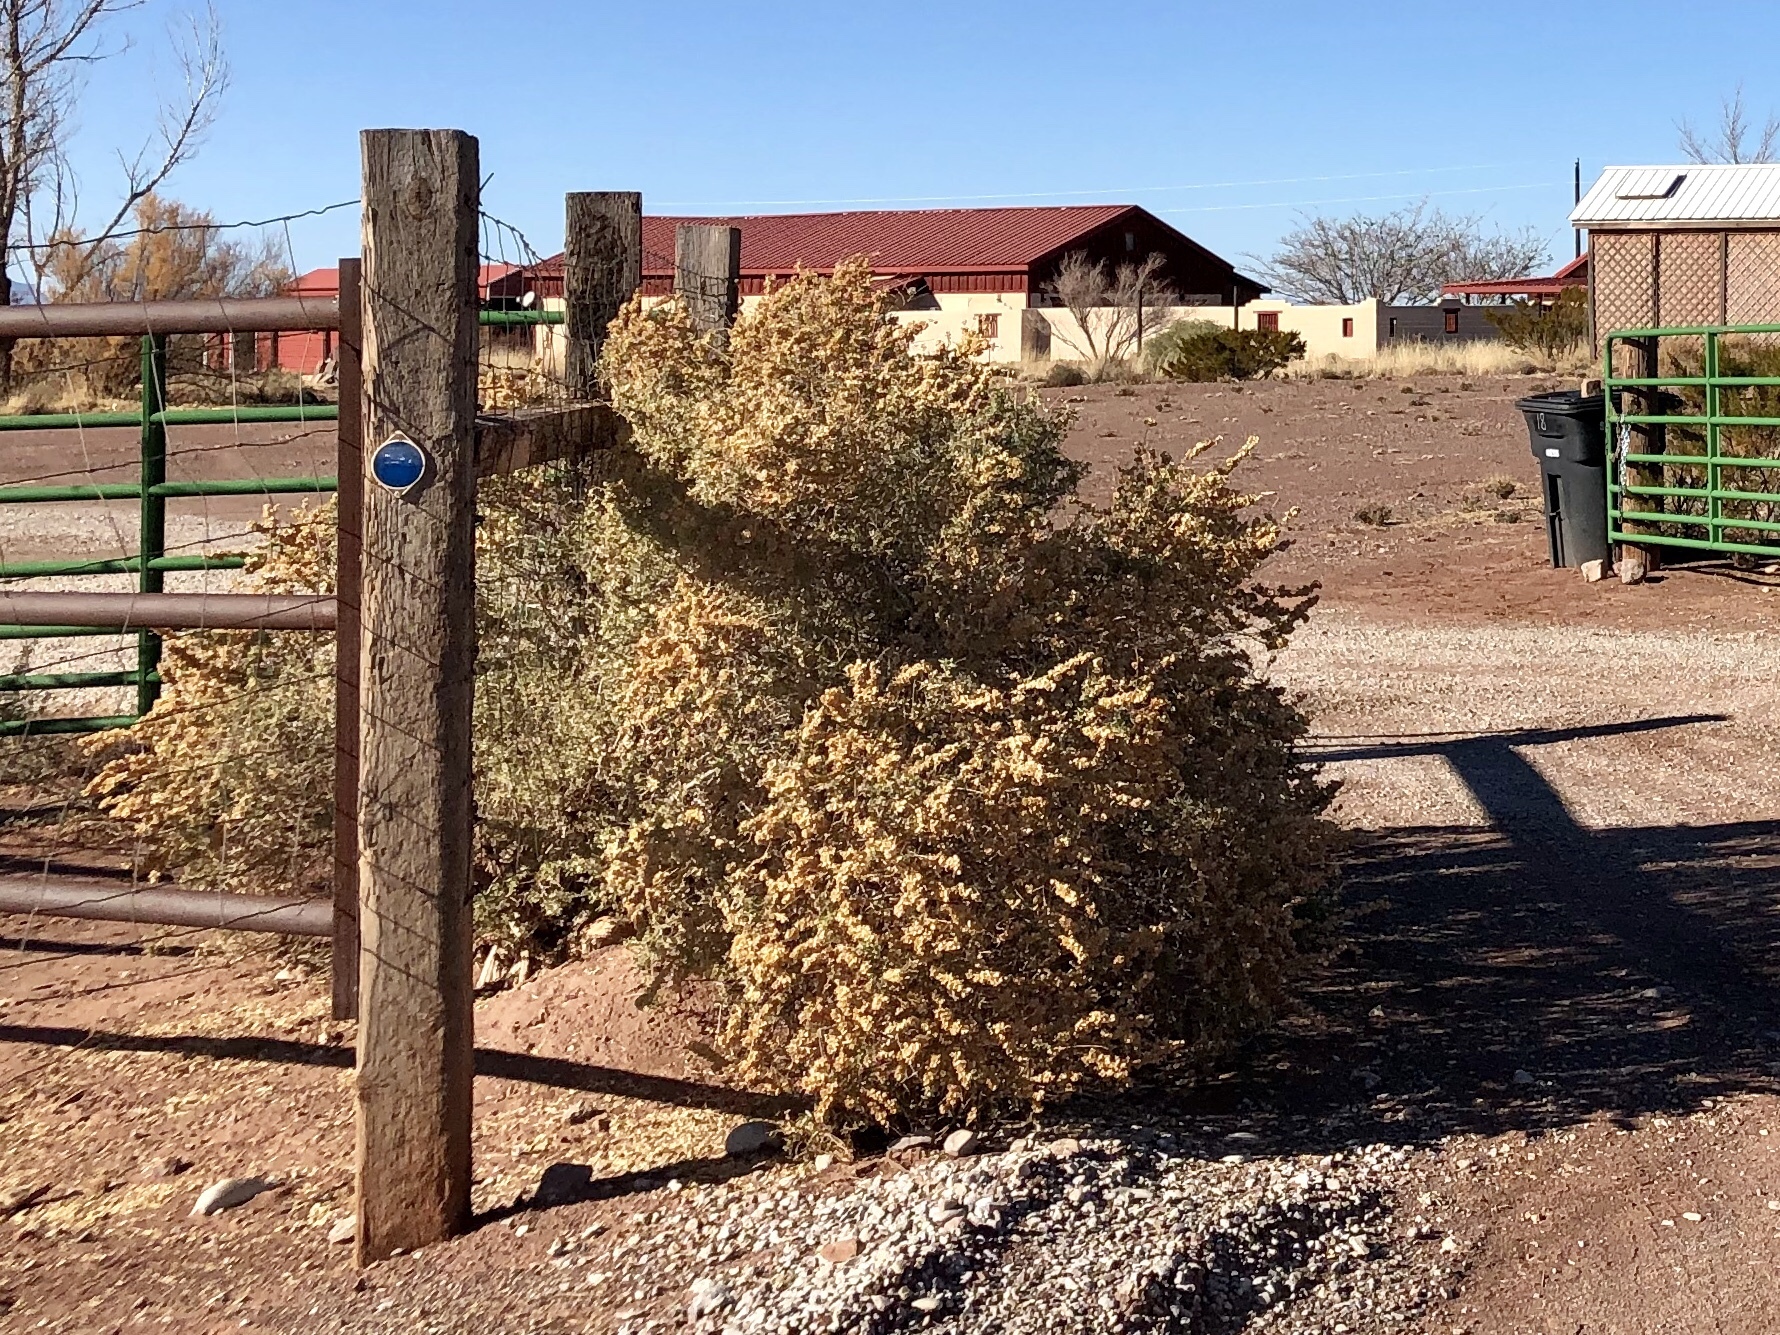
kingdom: Plantae
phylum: Tracheophyta
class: Magnoliopsida
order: Caryophyllales
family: Amaranthaceae
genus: Atriplex
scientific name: Atriplex canescens
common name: Four-wing saltbush
